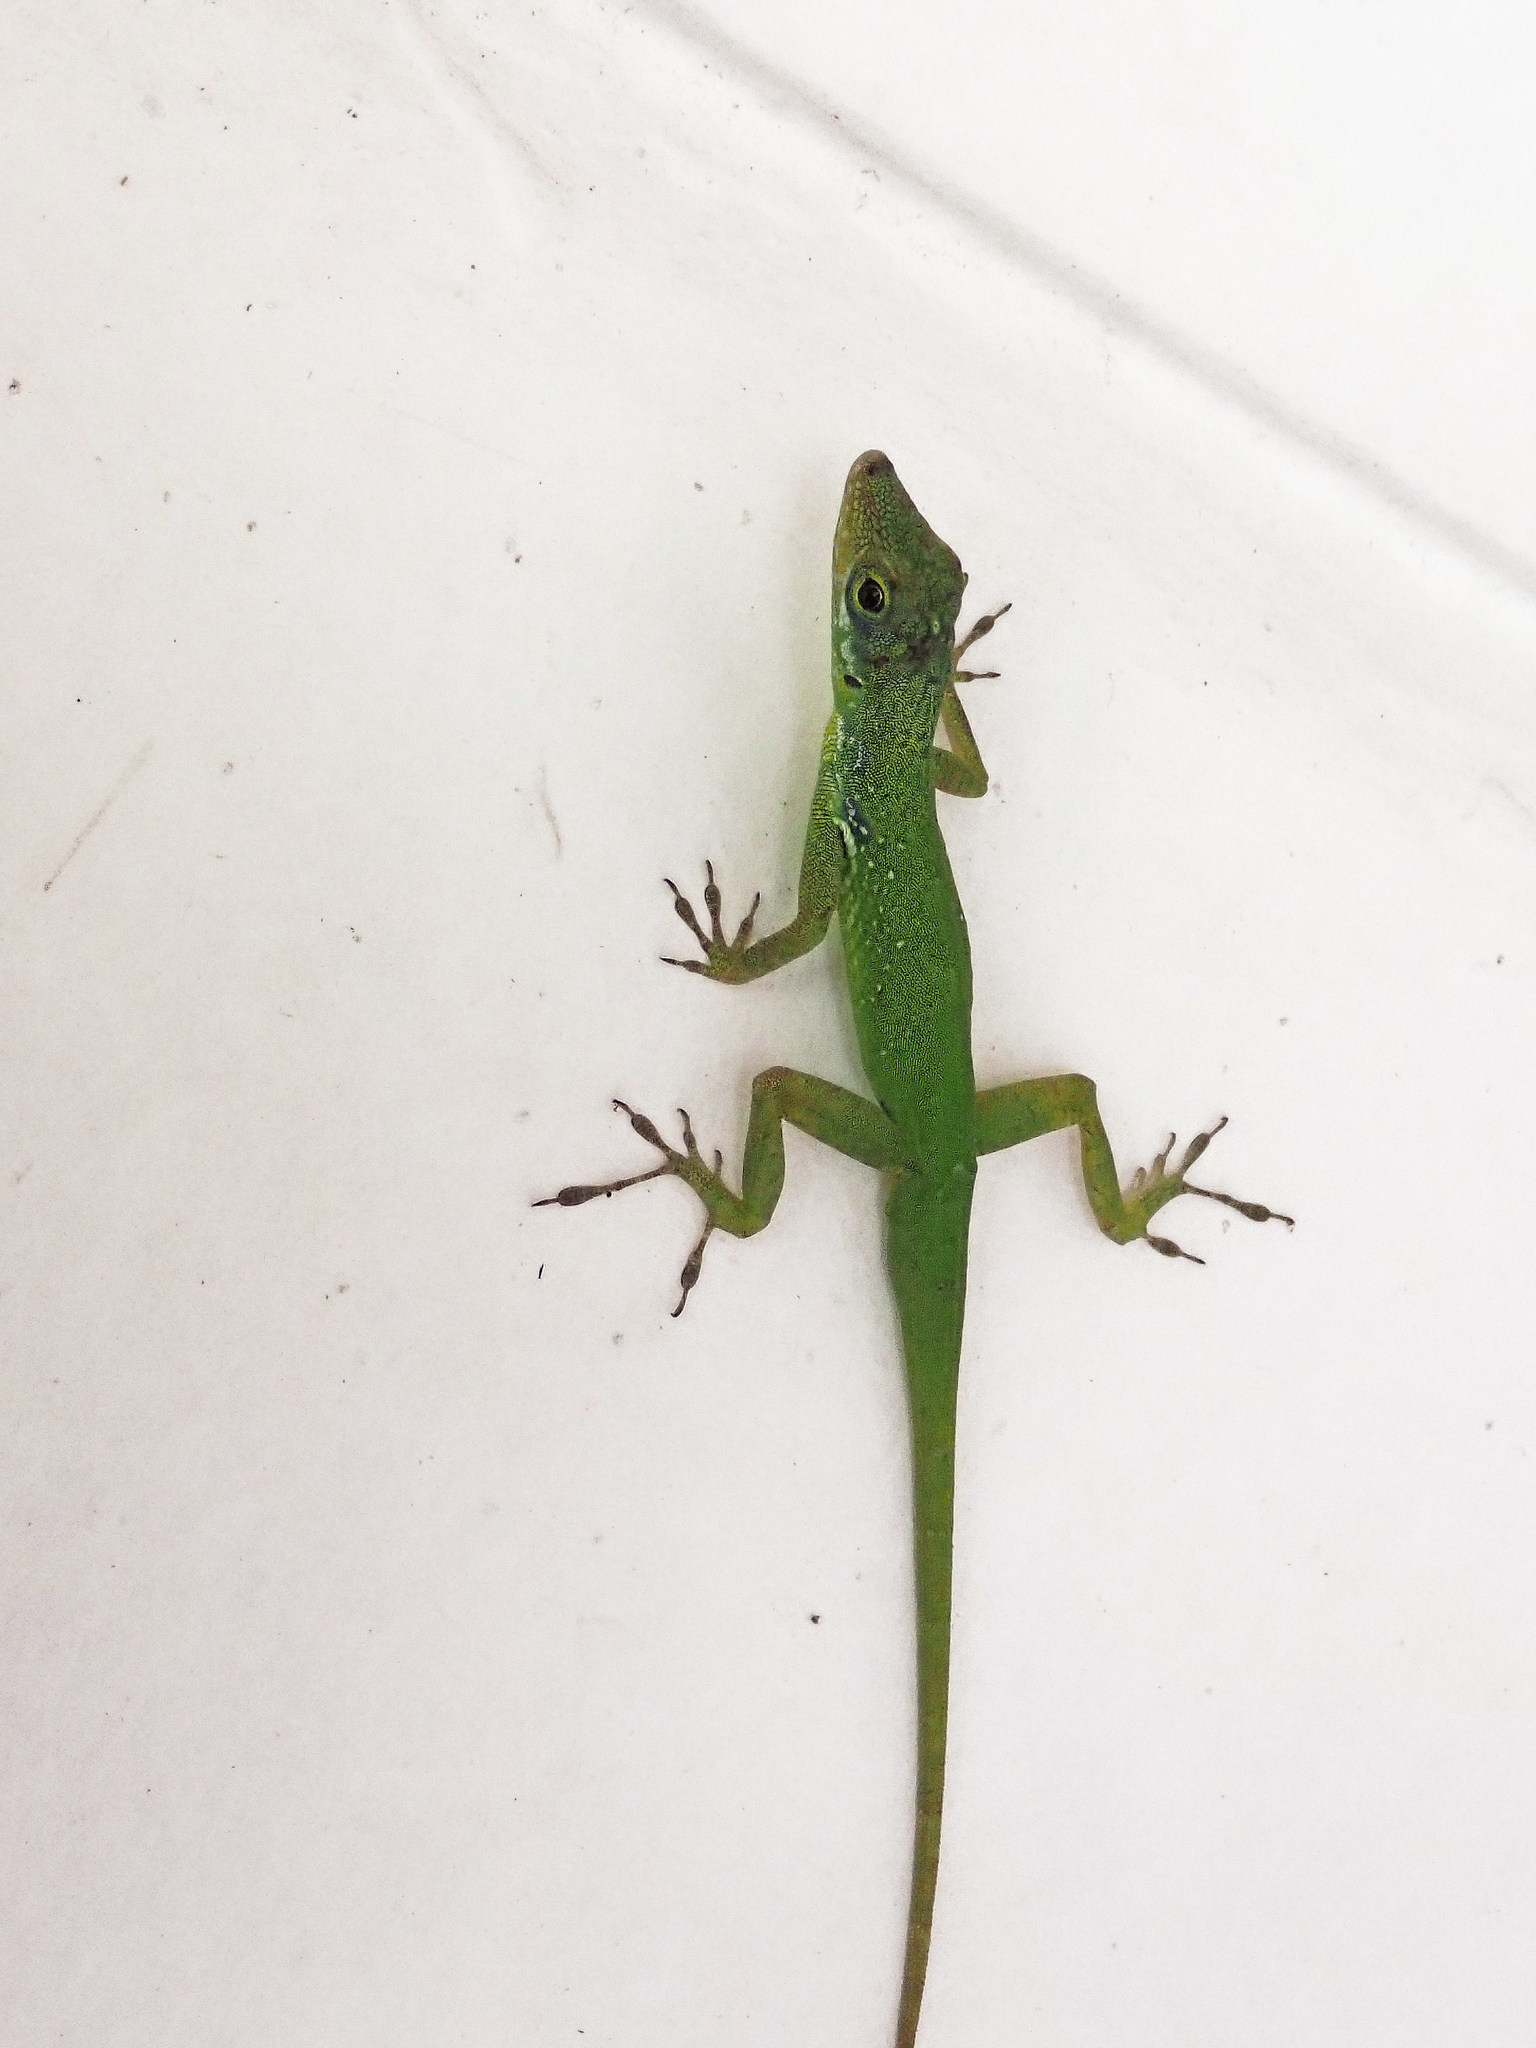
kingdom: Animalia
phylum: Chordata
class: Squamata
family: Dactyloidae
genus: Anolis
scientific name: Anolis roquet
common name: Martinique anole
